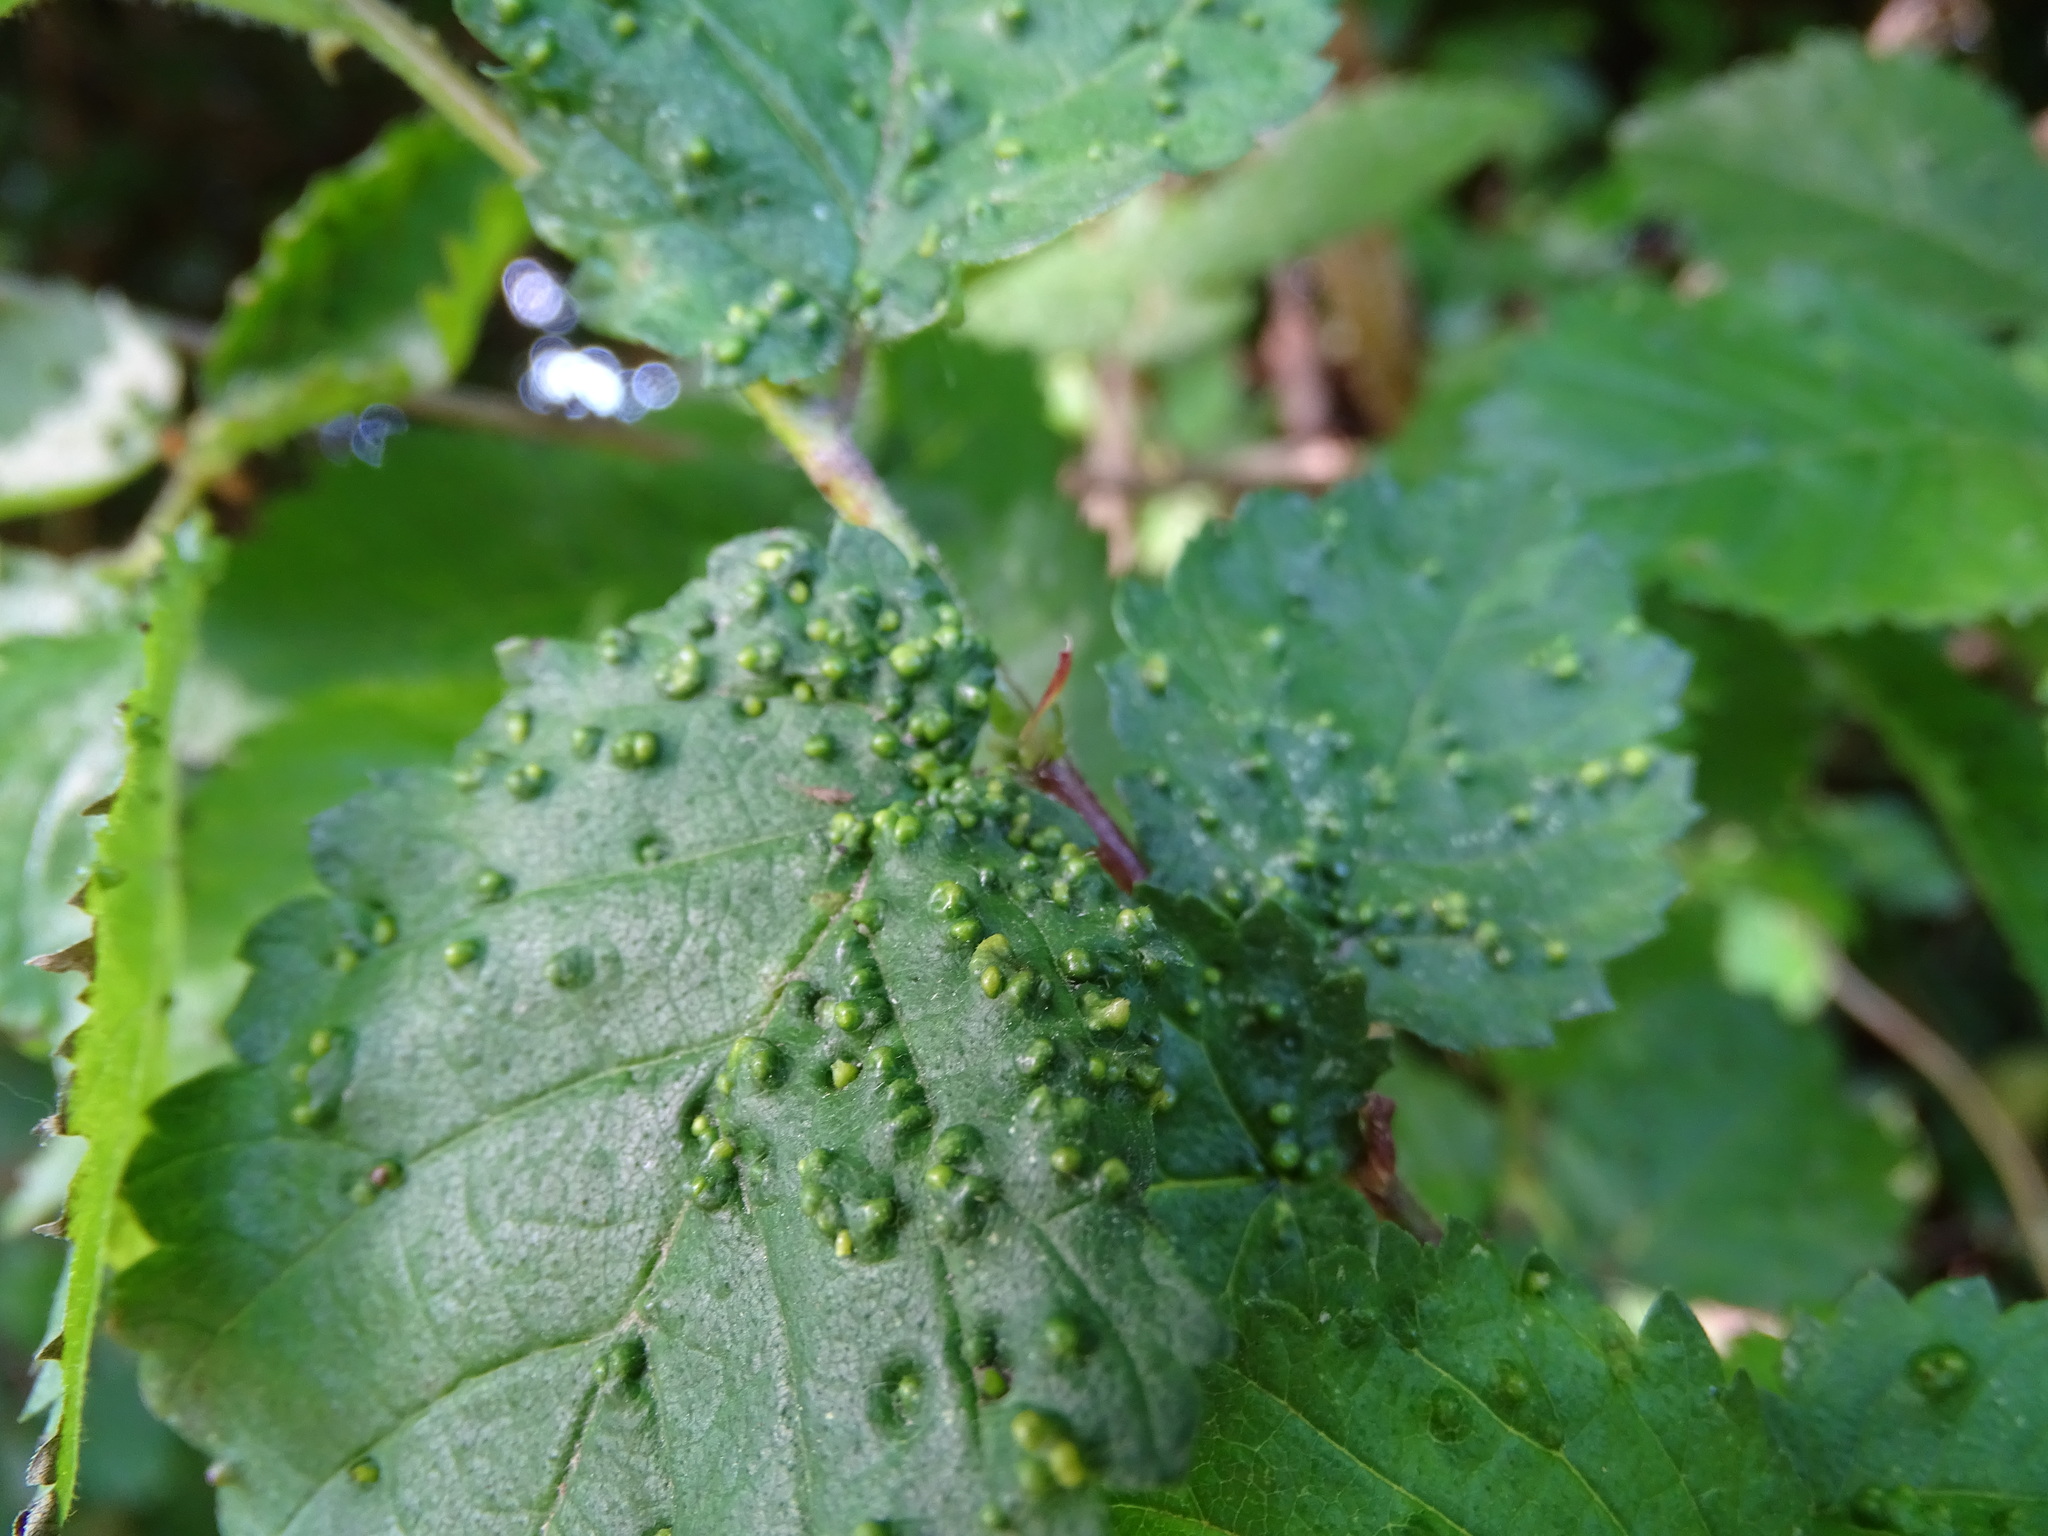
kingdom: Animalia
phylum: Arthropoda
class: Arachnida
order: Trombidiformes
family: Eriophyidae
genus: Aceria
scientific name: Aceria brevipunctata
